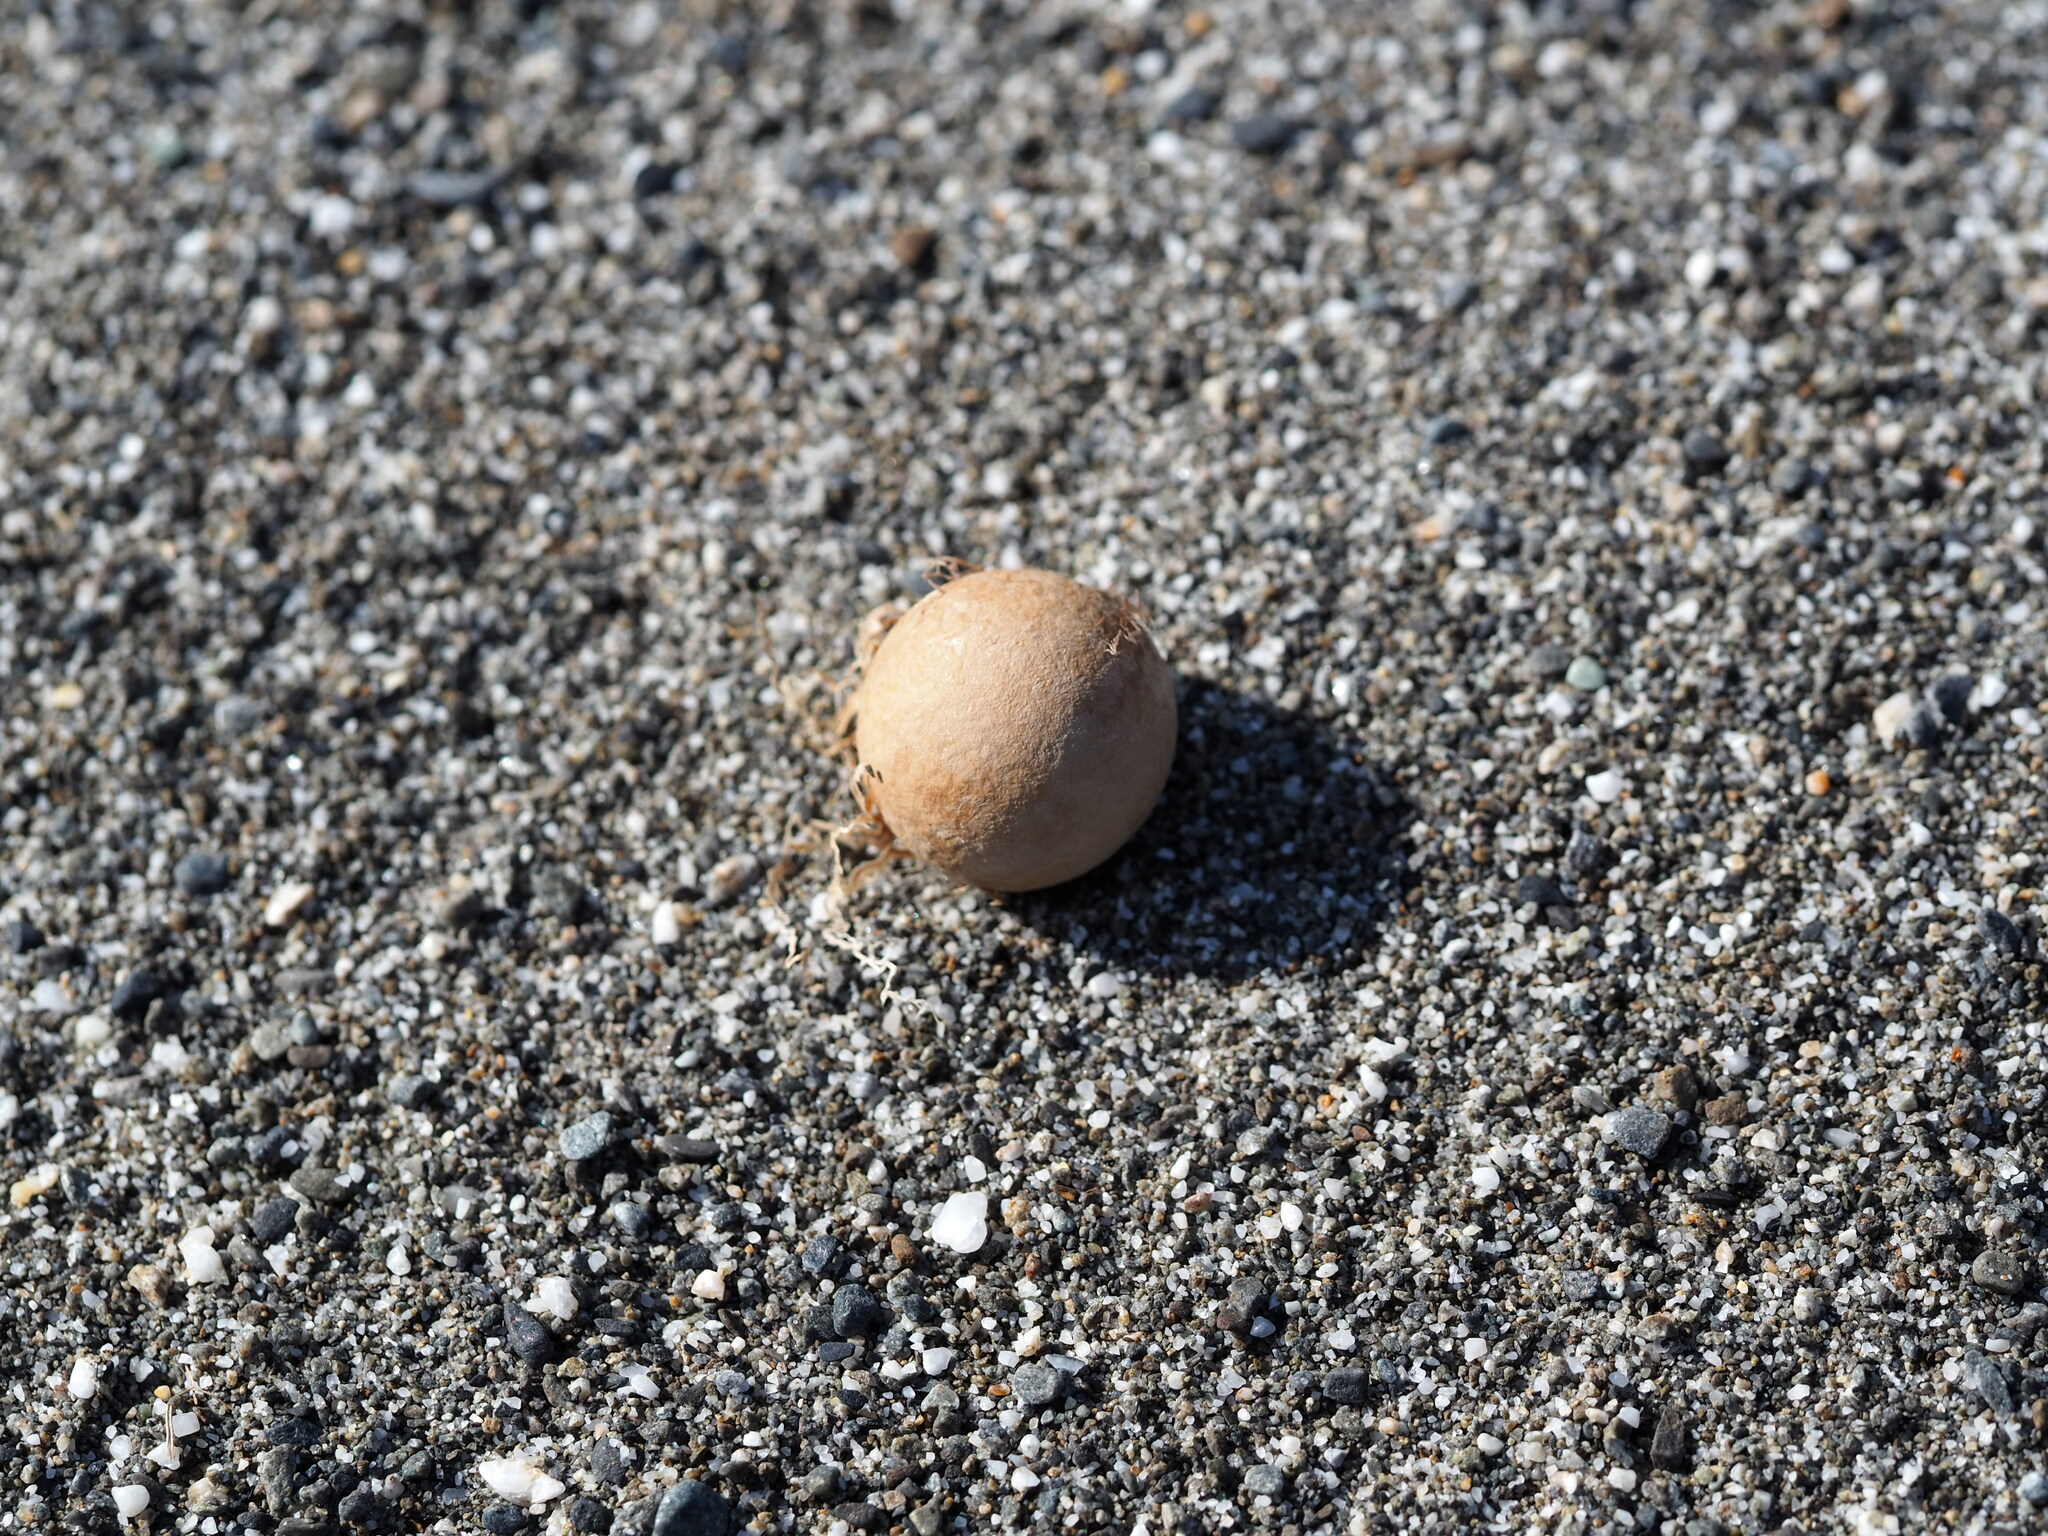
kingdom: Plantae
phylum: Tracheophyta
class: Magnoliopsida
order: Malpighiales
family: Calophyllaceae
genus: Calophyllum
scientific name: Calophyllum inophyllum
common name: Alexandrian laurel
